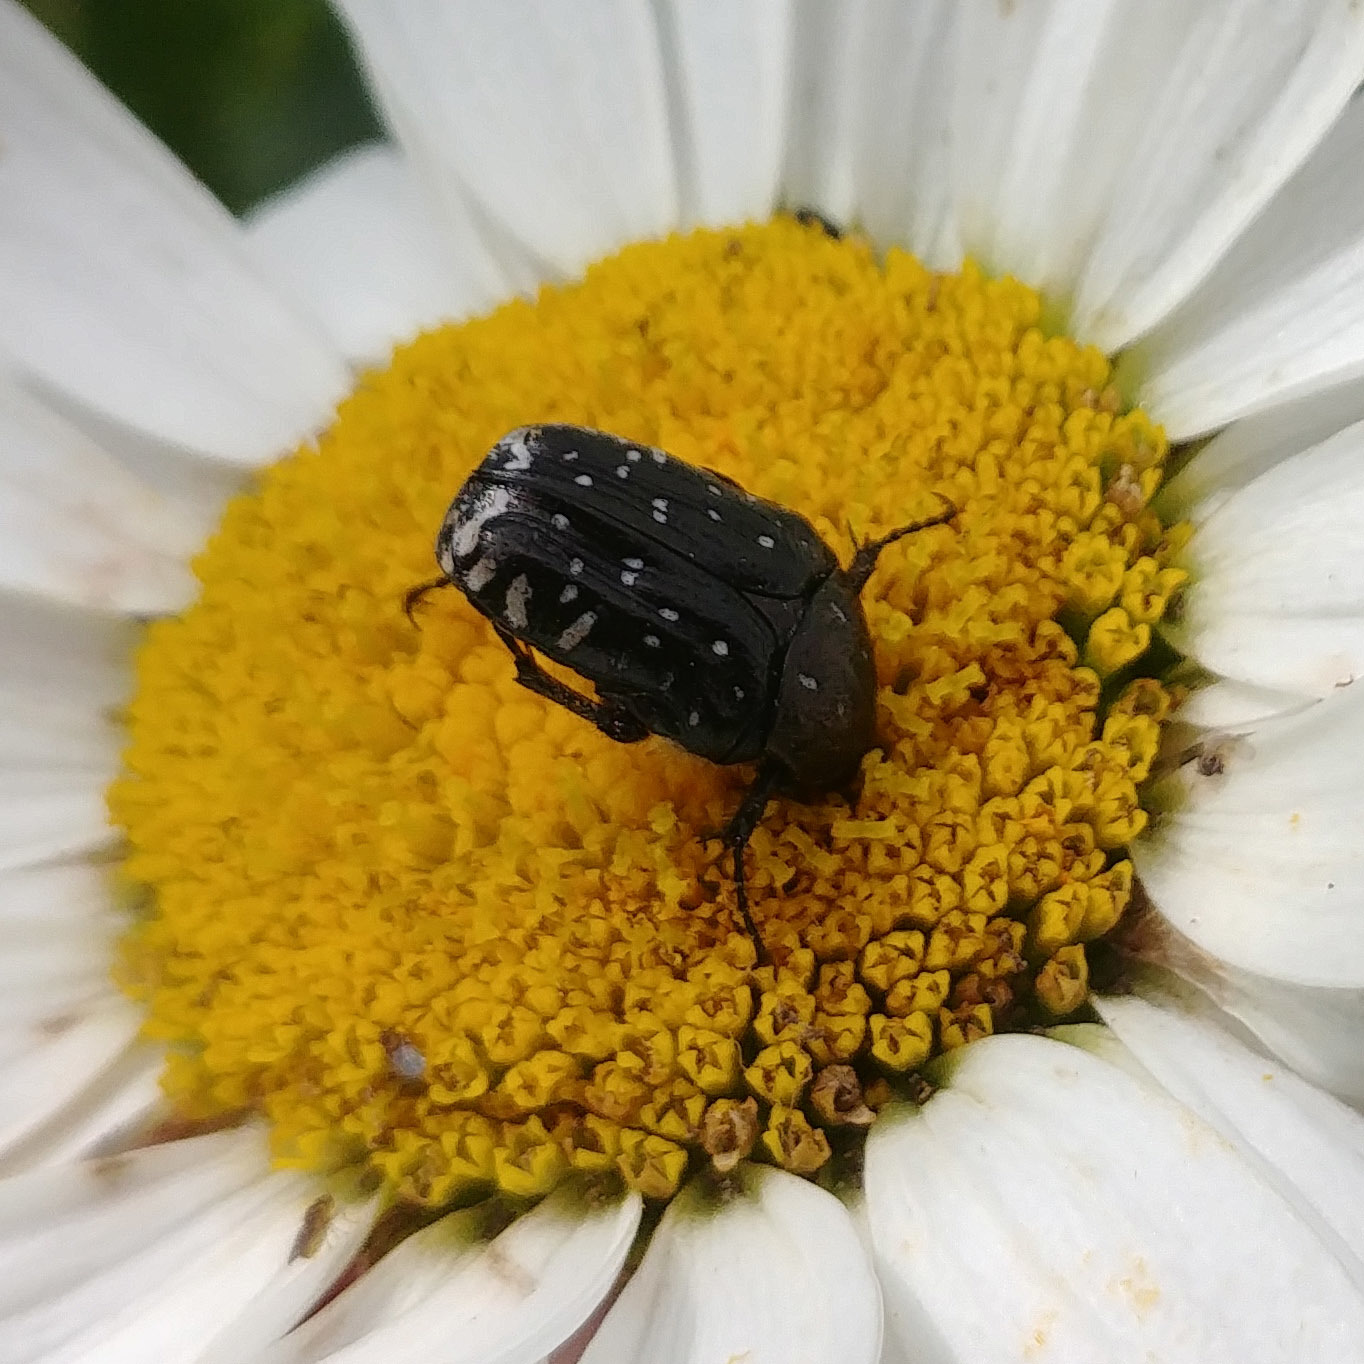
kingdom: Animalia
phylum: Arthropoda
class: Insecta
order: Coleoptera
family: Scarabaeidae
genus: Oxythyrea
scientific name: Oxythyrea funesta
